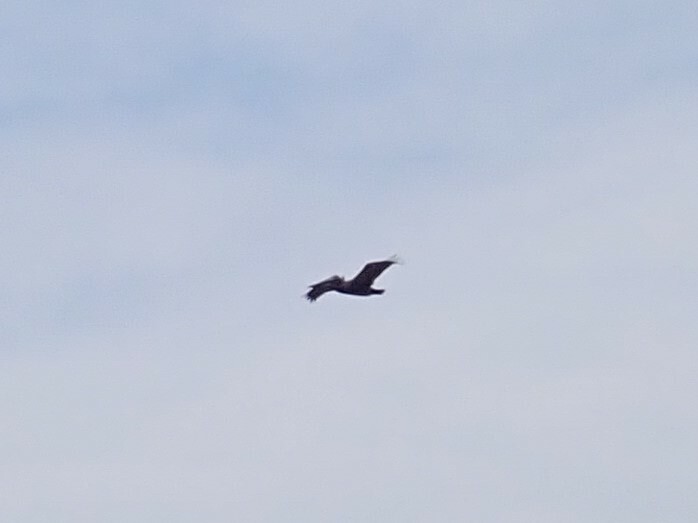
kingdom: Animalia
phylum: Chordata
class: Aves
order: Pelecaniformes
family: Pelecanidae
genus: Pelecanus
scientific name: Pelecanus occidentalis
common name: Brown pelican
